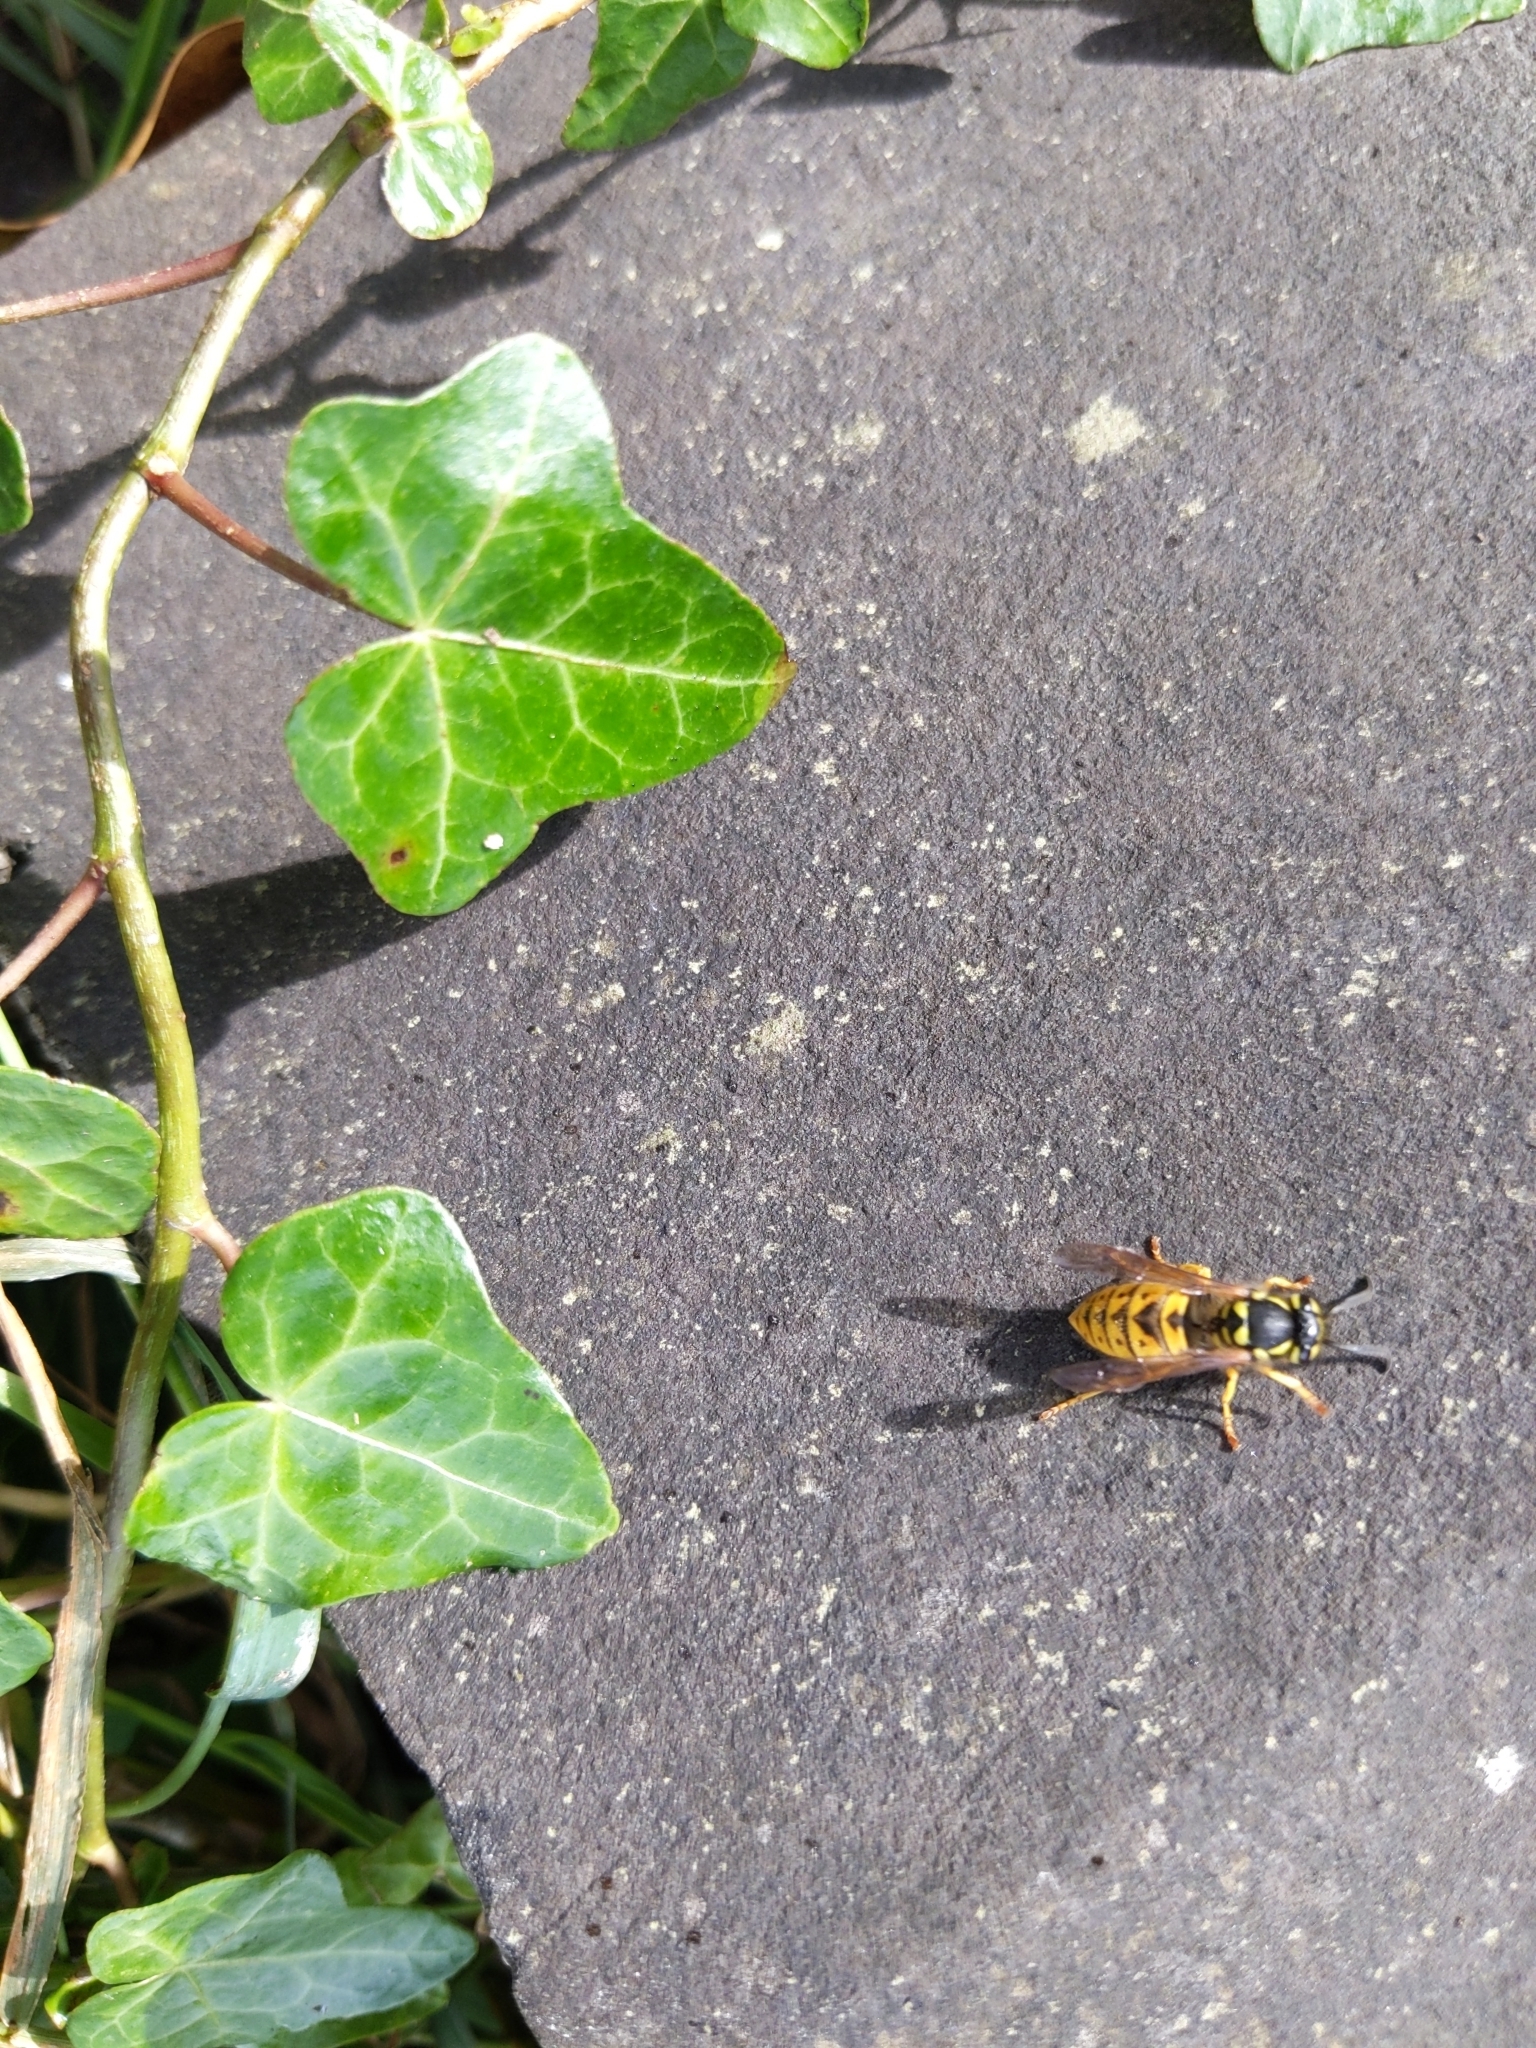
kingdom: Animalia
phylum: Arthropoda
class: Insecta
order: Hymenoptera
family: Vespidae
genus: Vespula
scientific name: Vespula germanica
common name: German wasp
